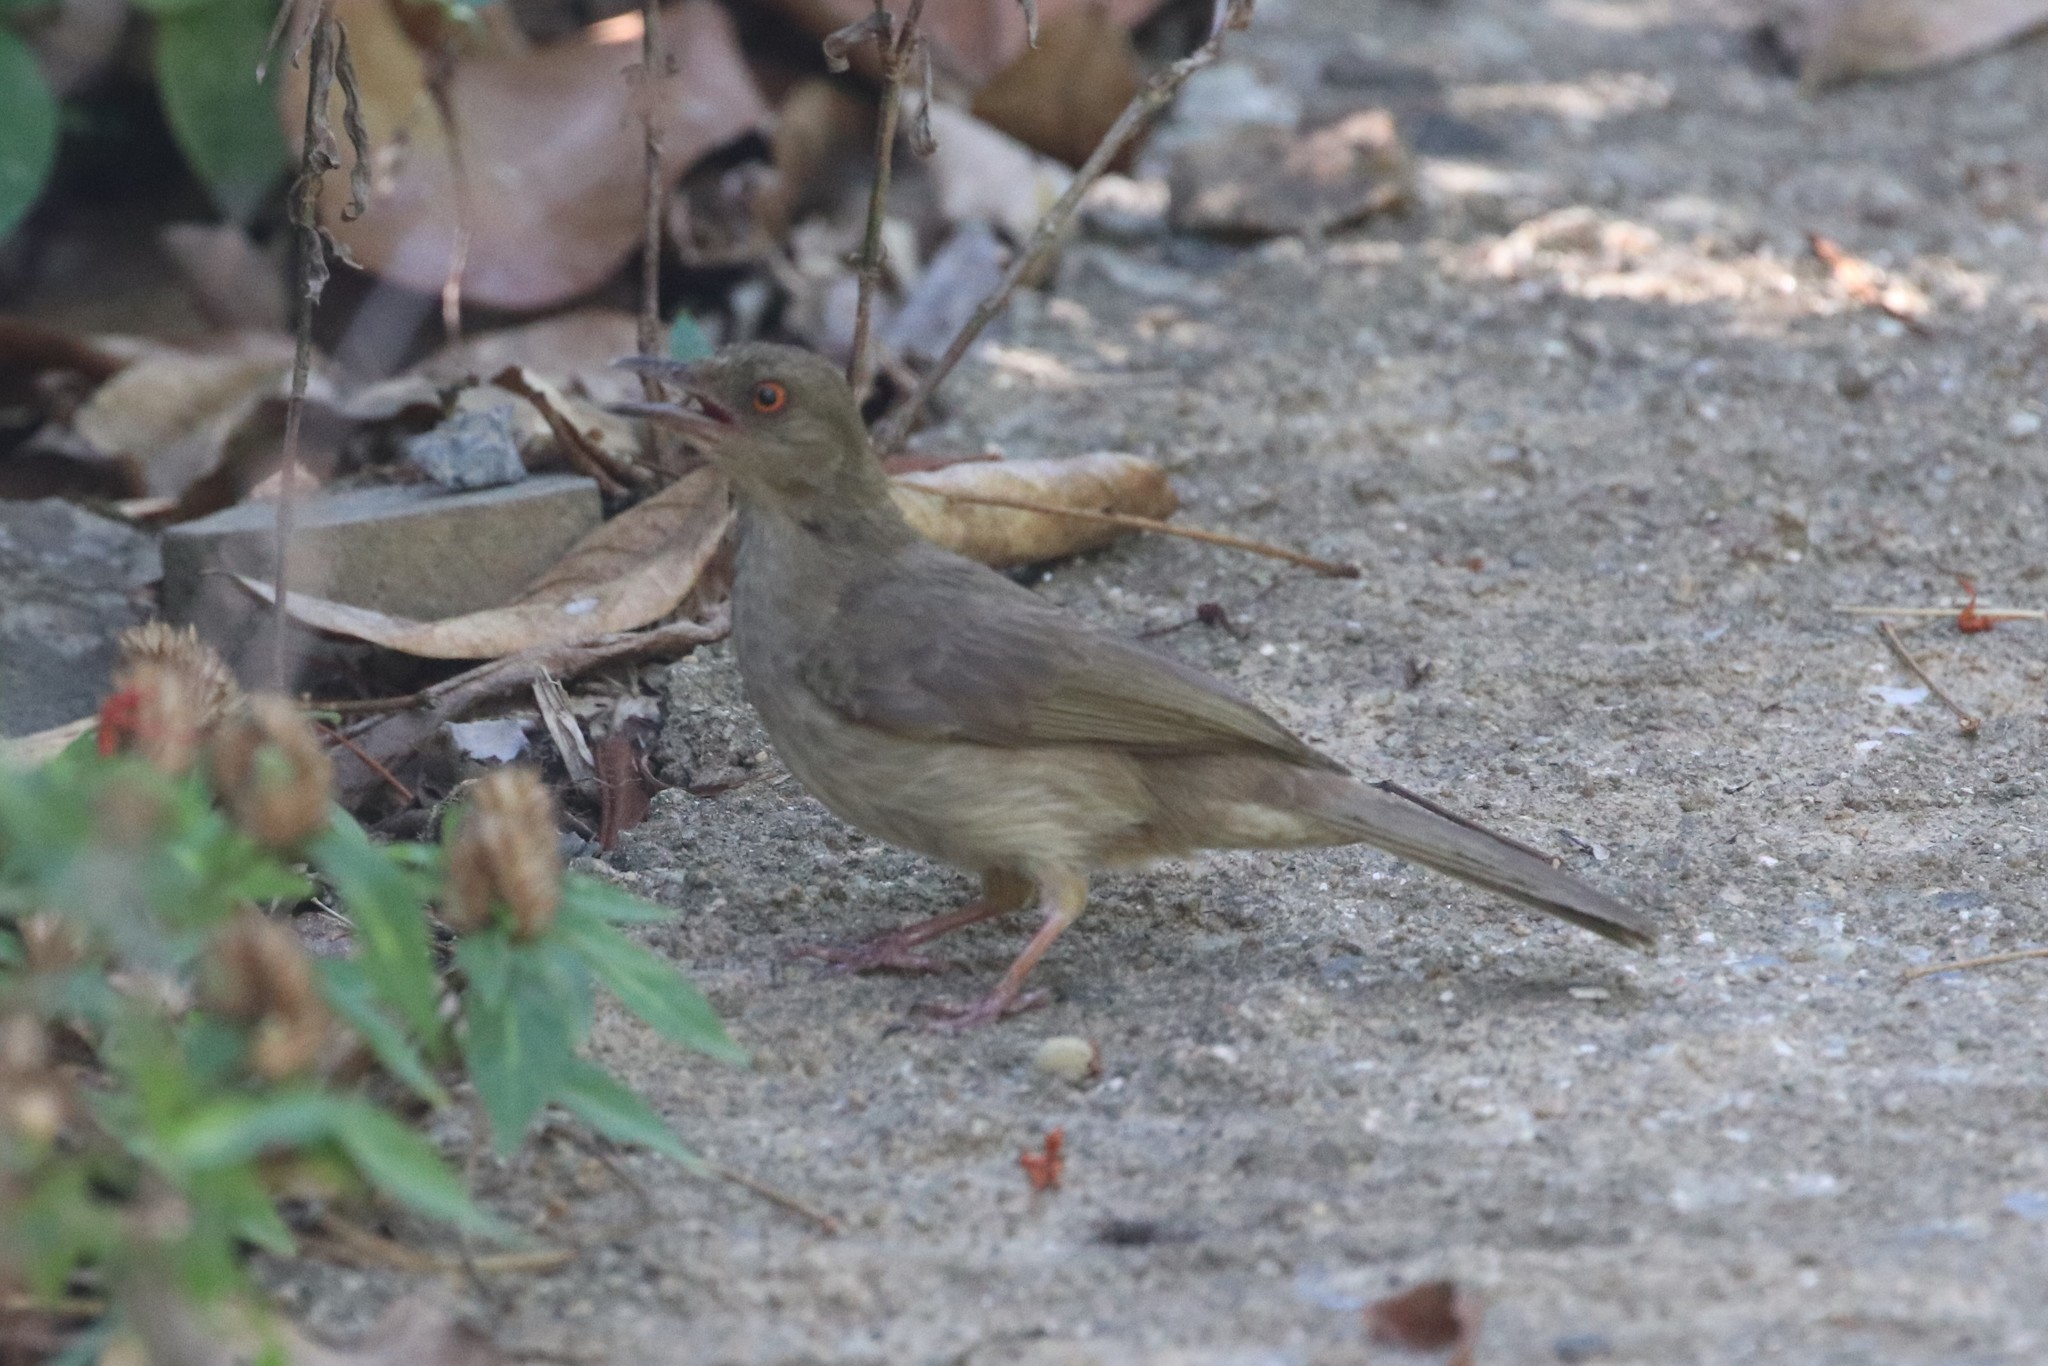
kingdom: Animalia
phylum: Chordata
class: Aves
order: Passeriformes
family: Pycnonotidae
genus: Pycnonotus
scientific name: Pycnonotus brunneus
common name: Asian red-eyed bulbul
